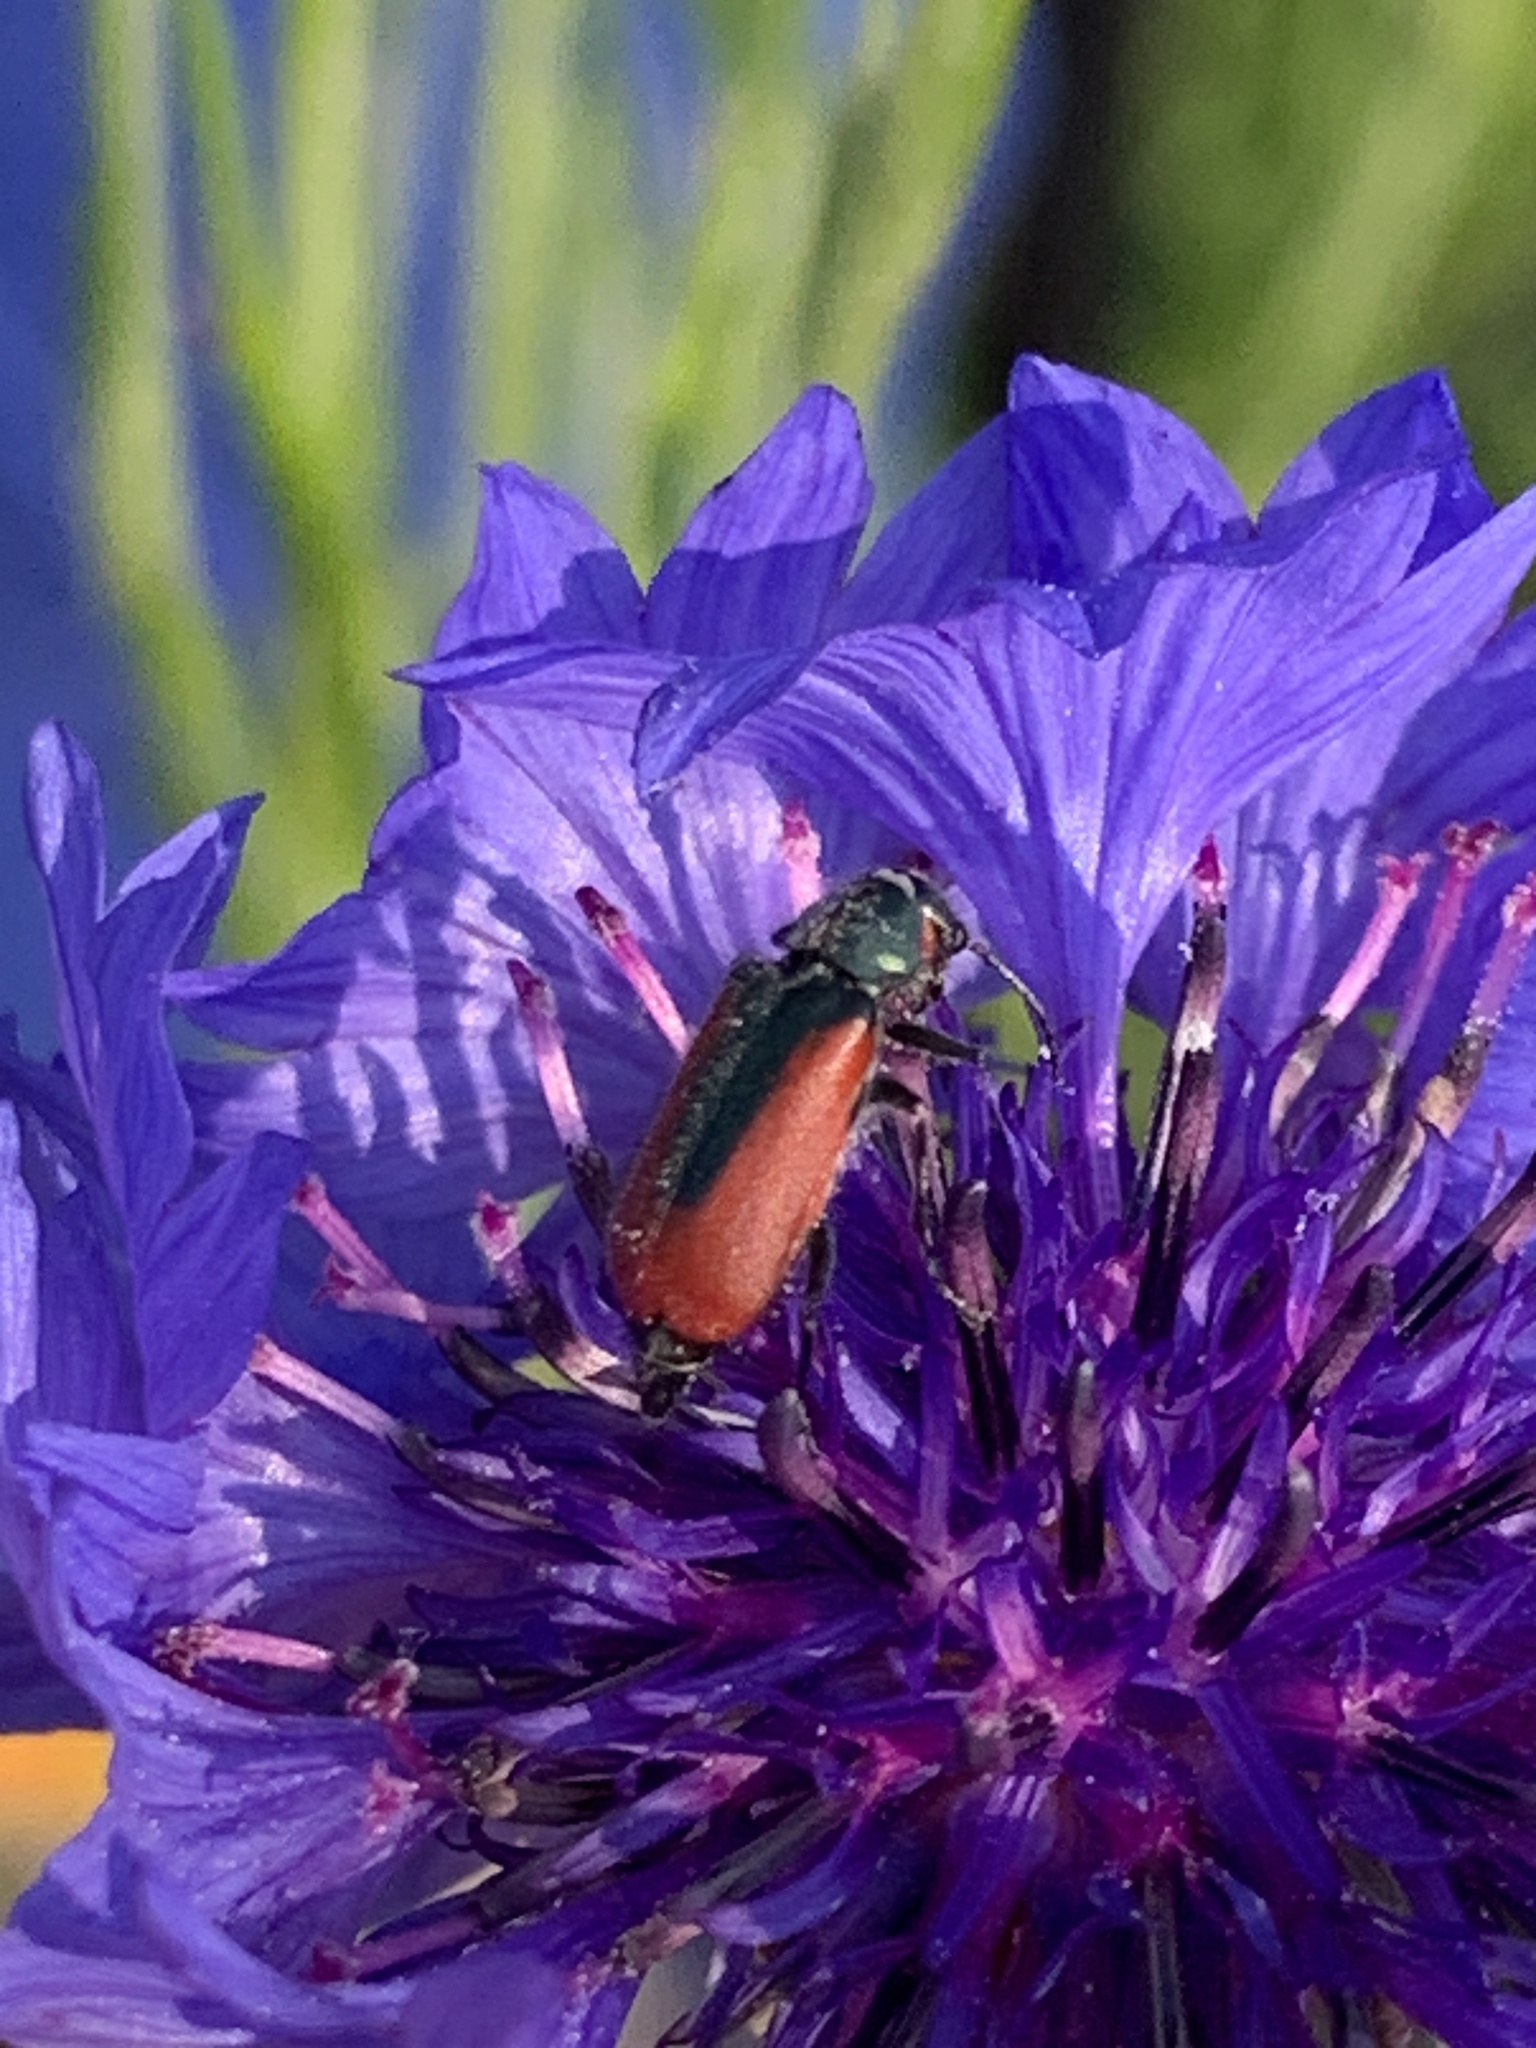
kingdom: Animalia
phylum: Arthropoda
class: Insecta
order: Coleoptera
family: Melyridae
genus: Malachius
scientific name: Malachius aeneus
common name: Scarlet malachite beetle
